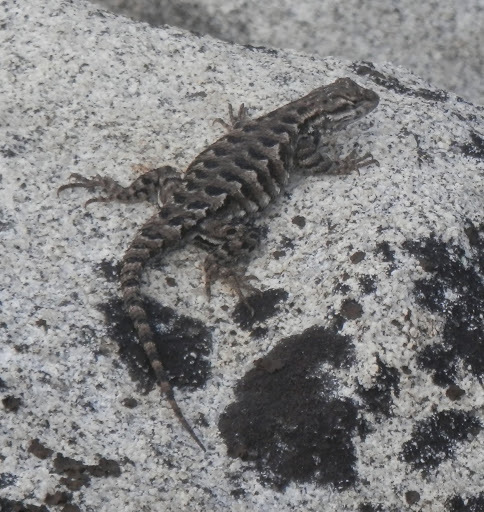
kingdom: Animalia
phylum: Chordata
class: Squamata
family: Phrynosomatidae
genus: Sceloporus
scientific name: Sceloporus occidentalis
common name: Western fence lizard
